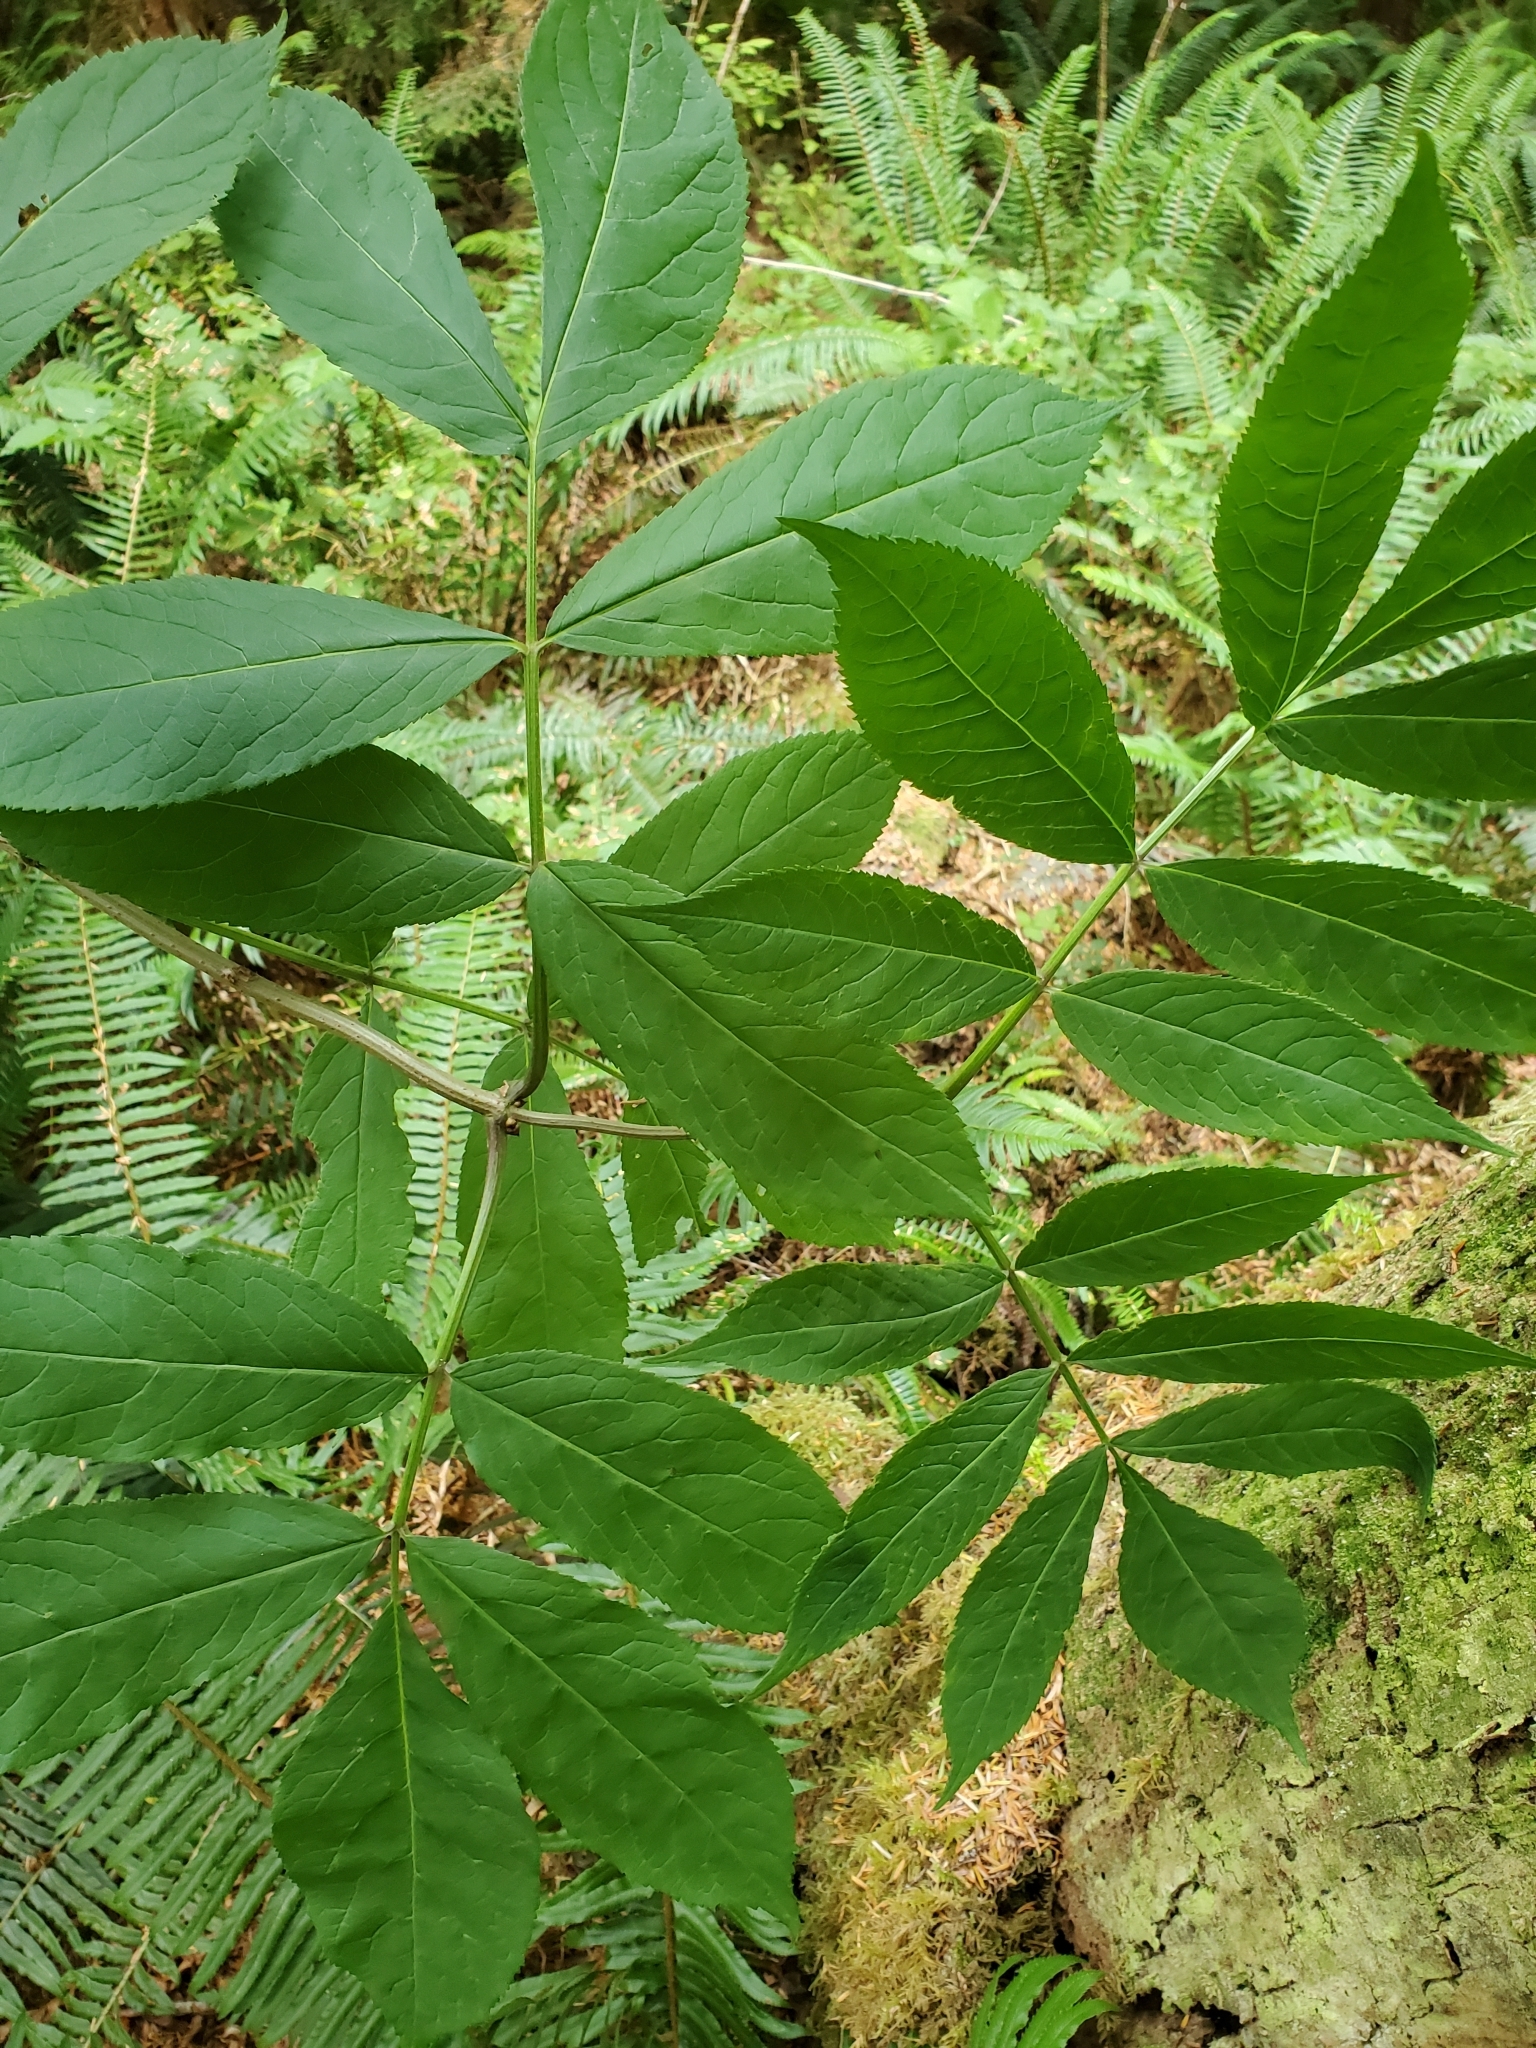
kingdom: Plantae
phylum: Tracheophyta
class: Magnoliopsida
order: Dipsacales
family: Viburnaceae
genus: Sambucus
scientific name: Sambucus racemosa
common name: Red-berried elder
